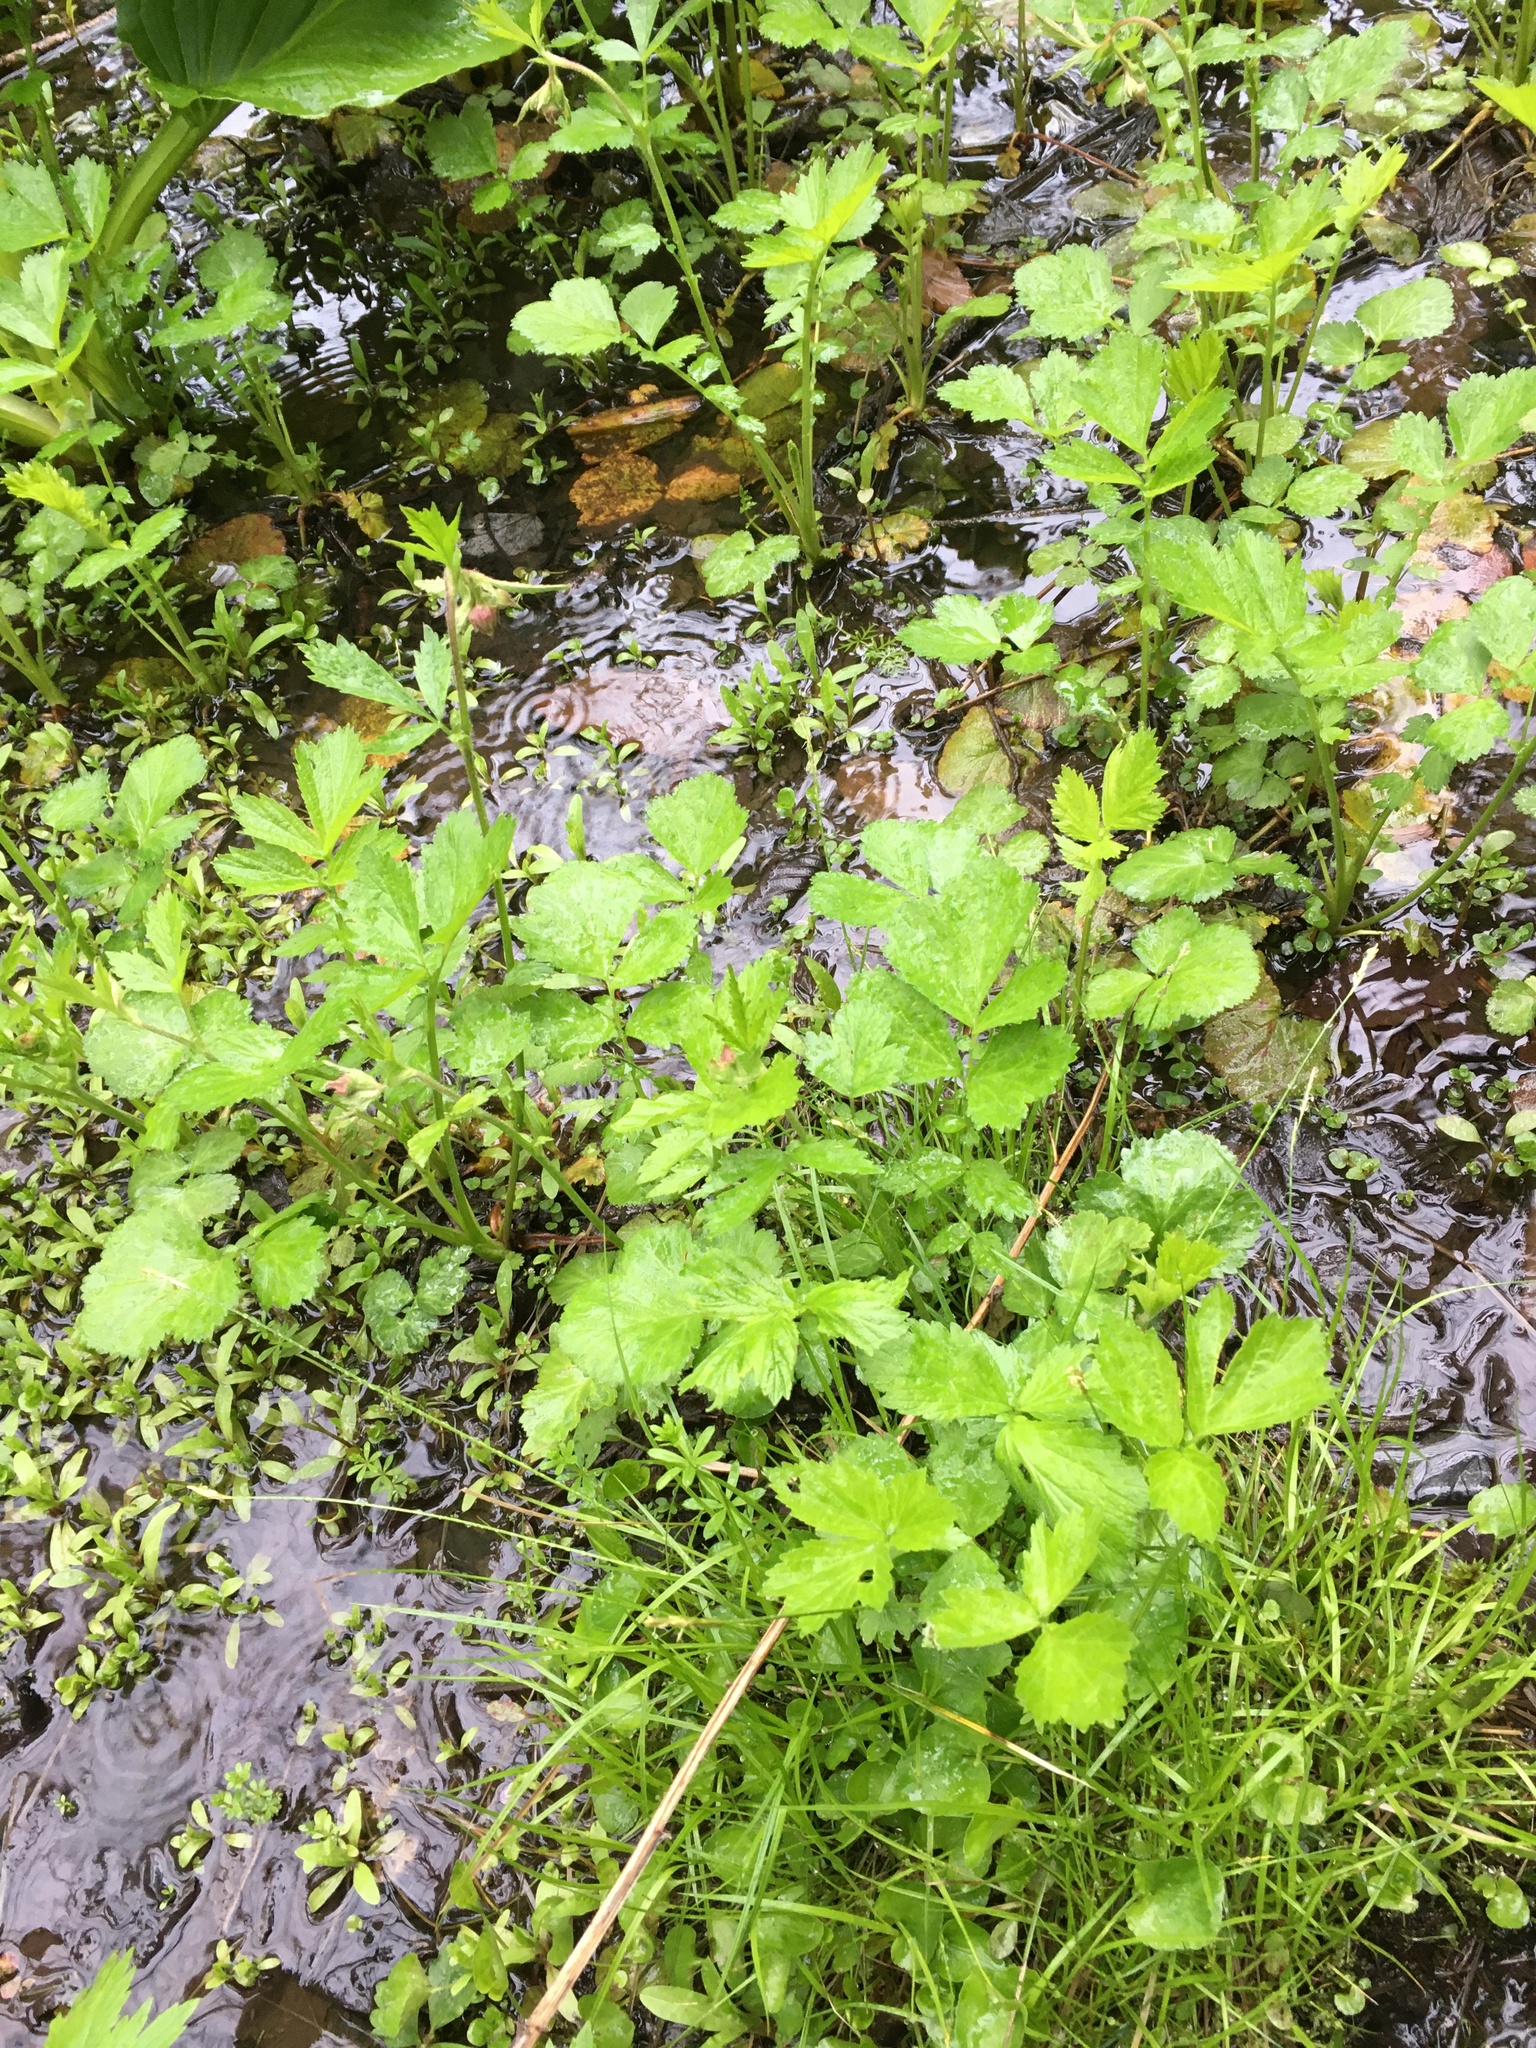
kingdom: Plantae
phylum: Tracheophyta
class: Magnoliopsida
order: Rosales
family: Rosaceae
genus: Geum
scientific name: Geum rivale
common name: Water avens
